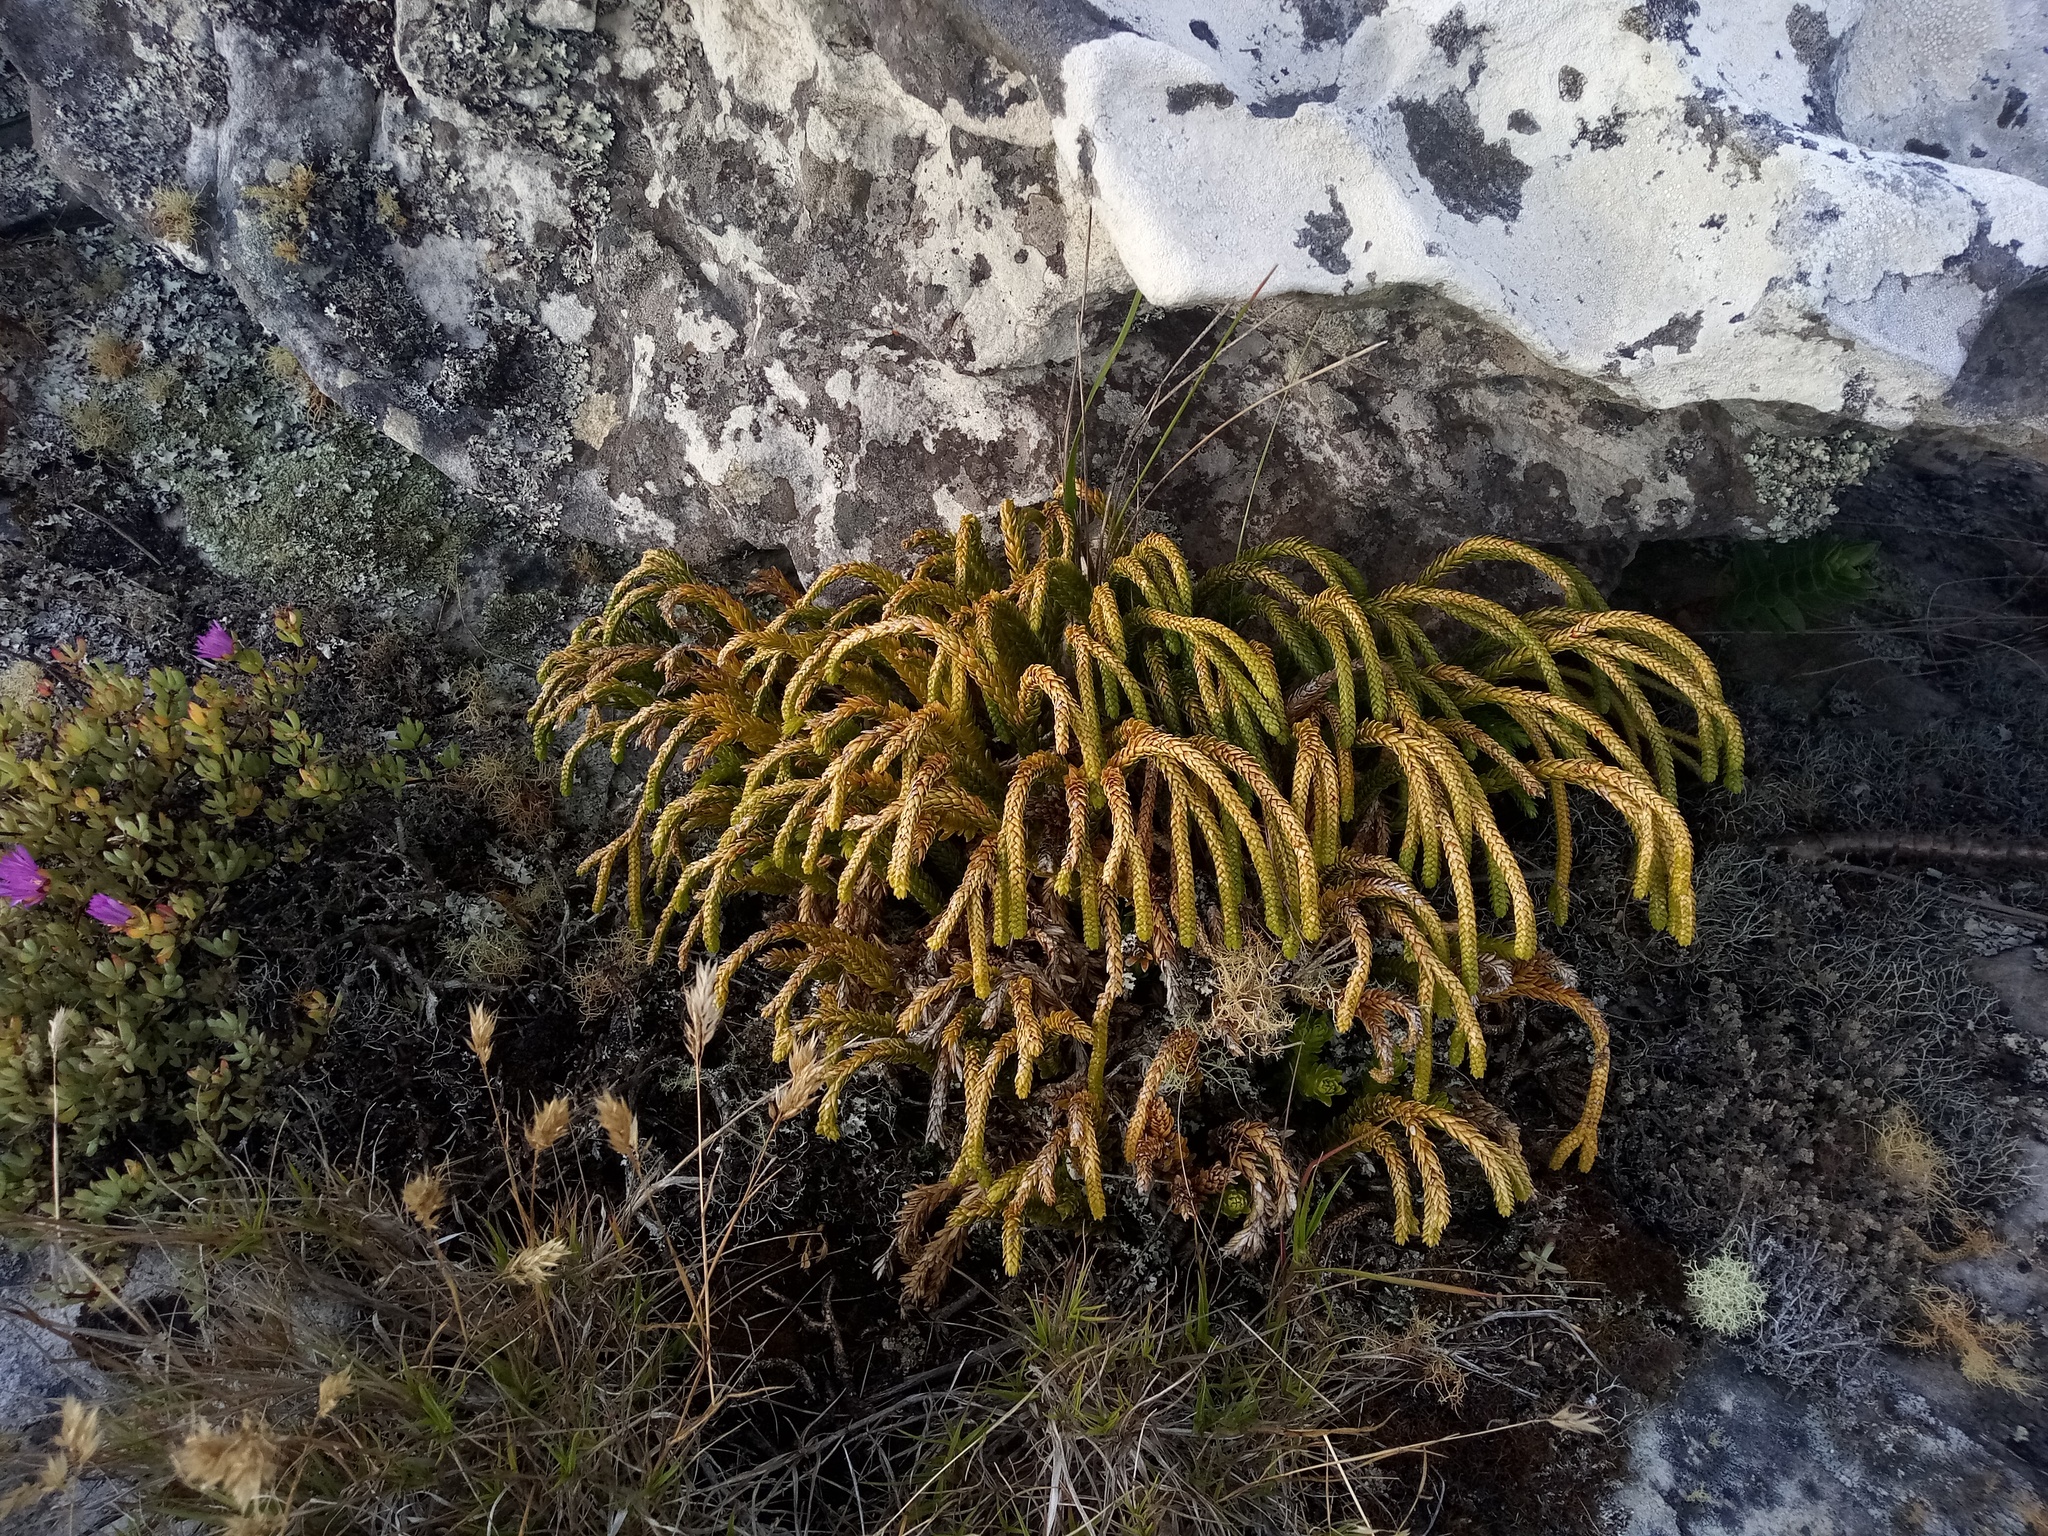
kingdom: Plantae
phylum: Tracheophyta
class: Lycopodiopsida
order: Lycopodiales
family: Lycopodiaceae
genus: Phlegmariurus
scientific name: Phlegmariurus gnidioides
